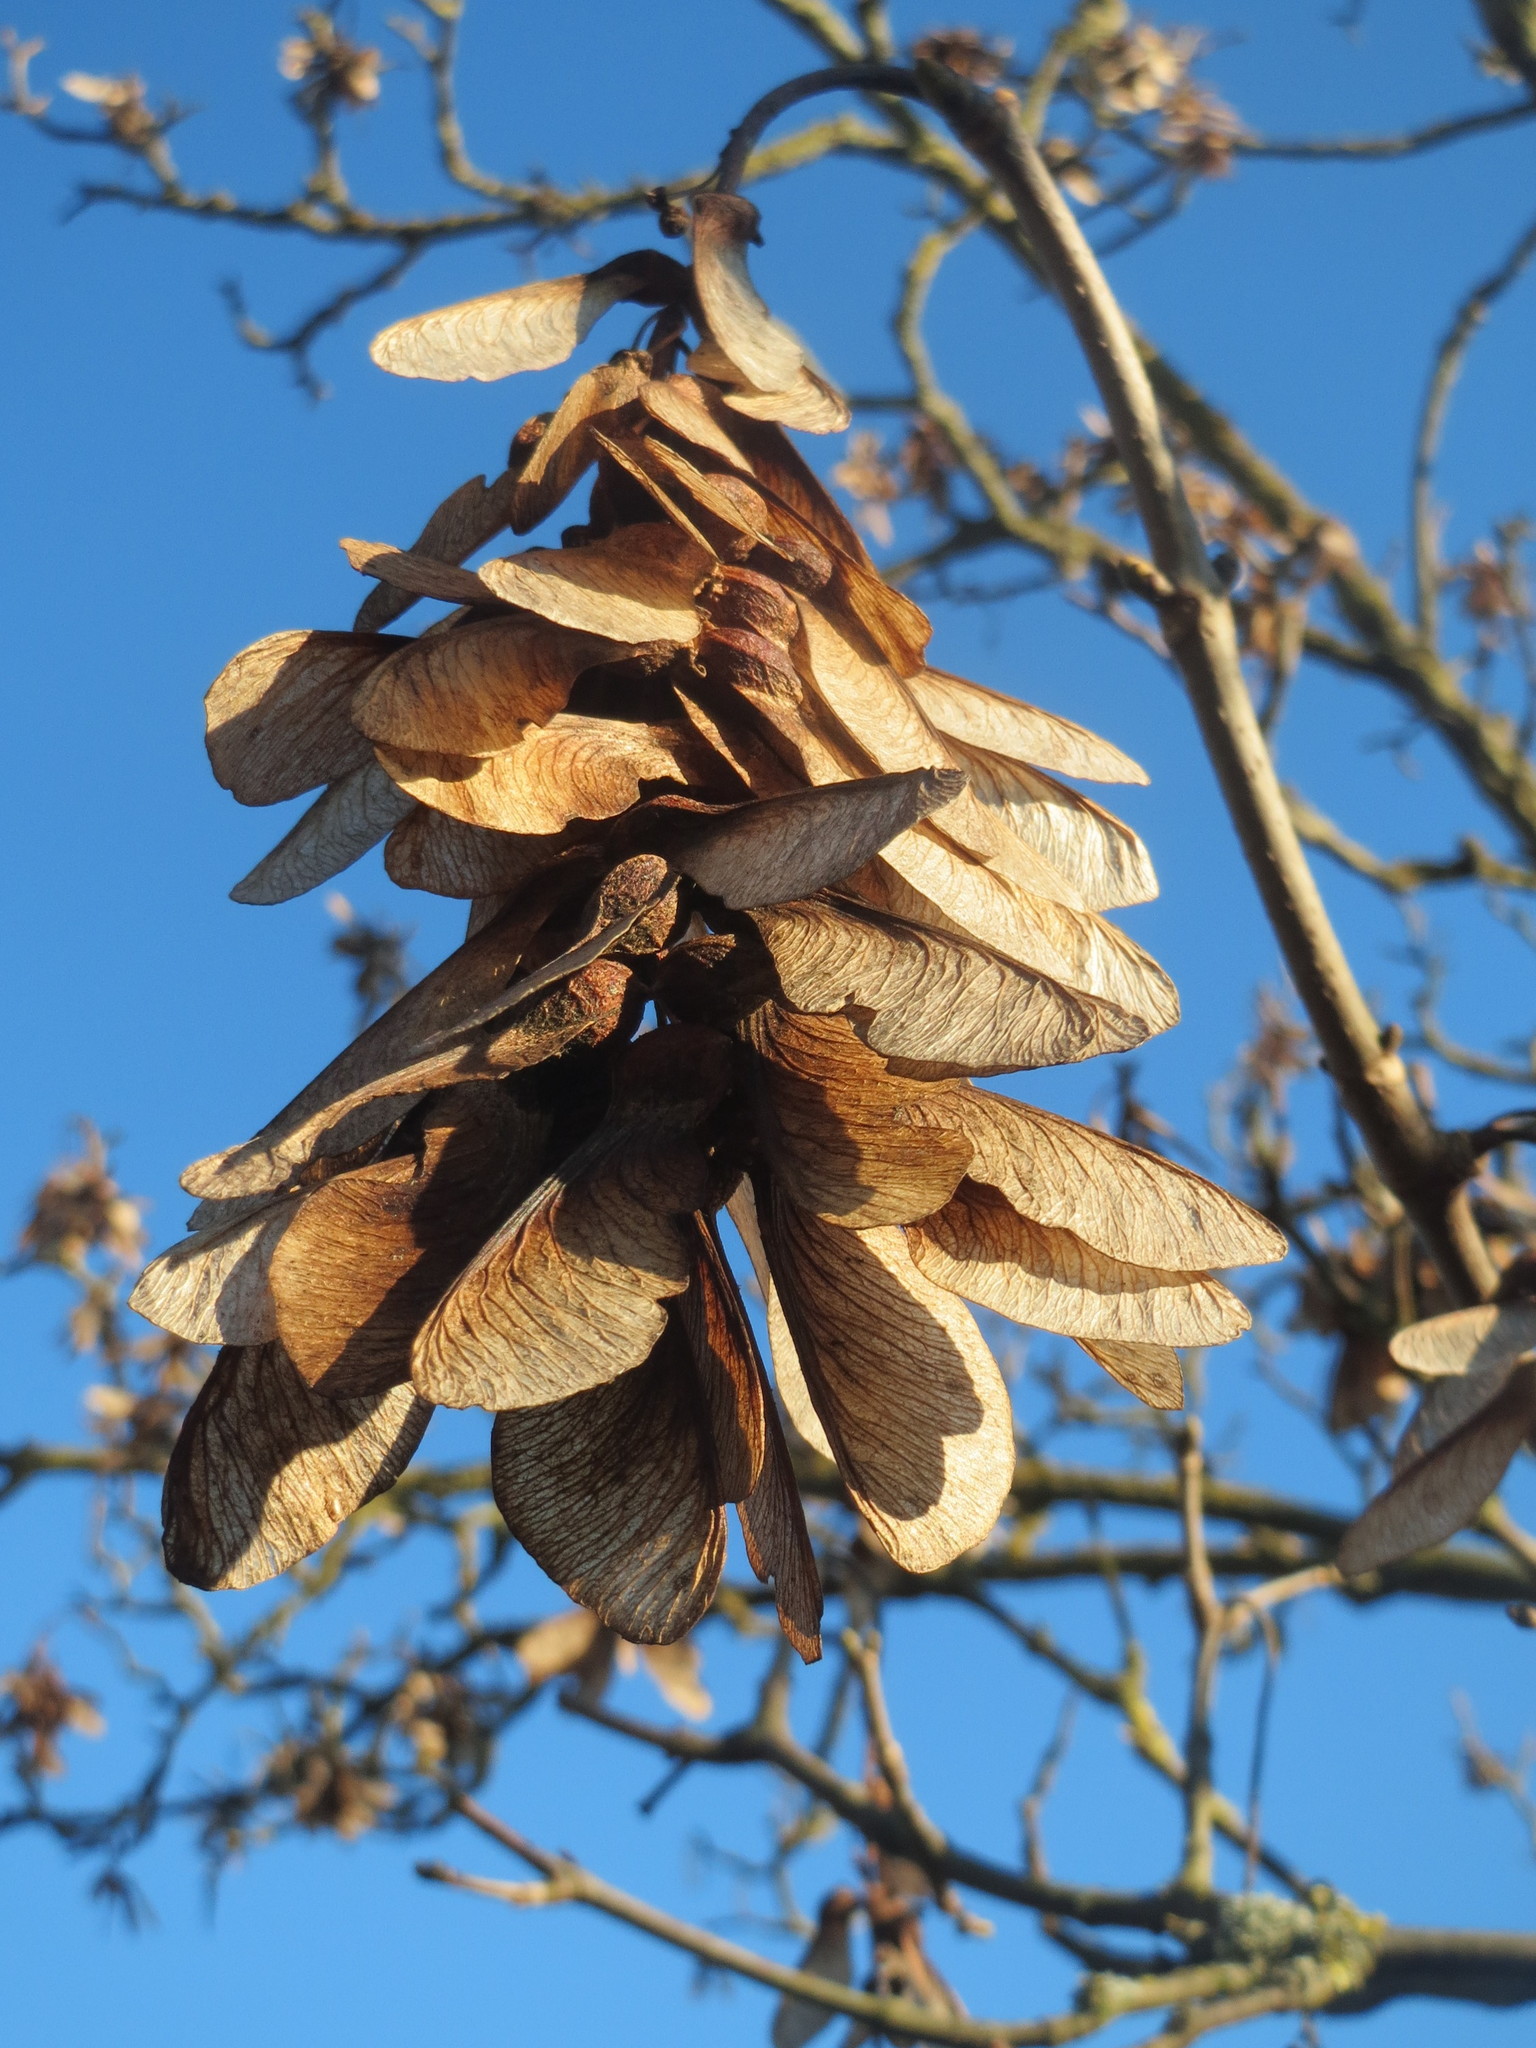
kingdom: Plantae
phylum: Tracheophyta
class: Magnoliopsida
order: Sapindales
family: Sapindaceae
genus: Acer
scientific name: Acer pseudoplatanus
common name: Sycamore
